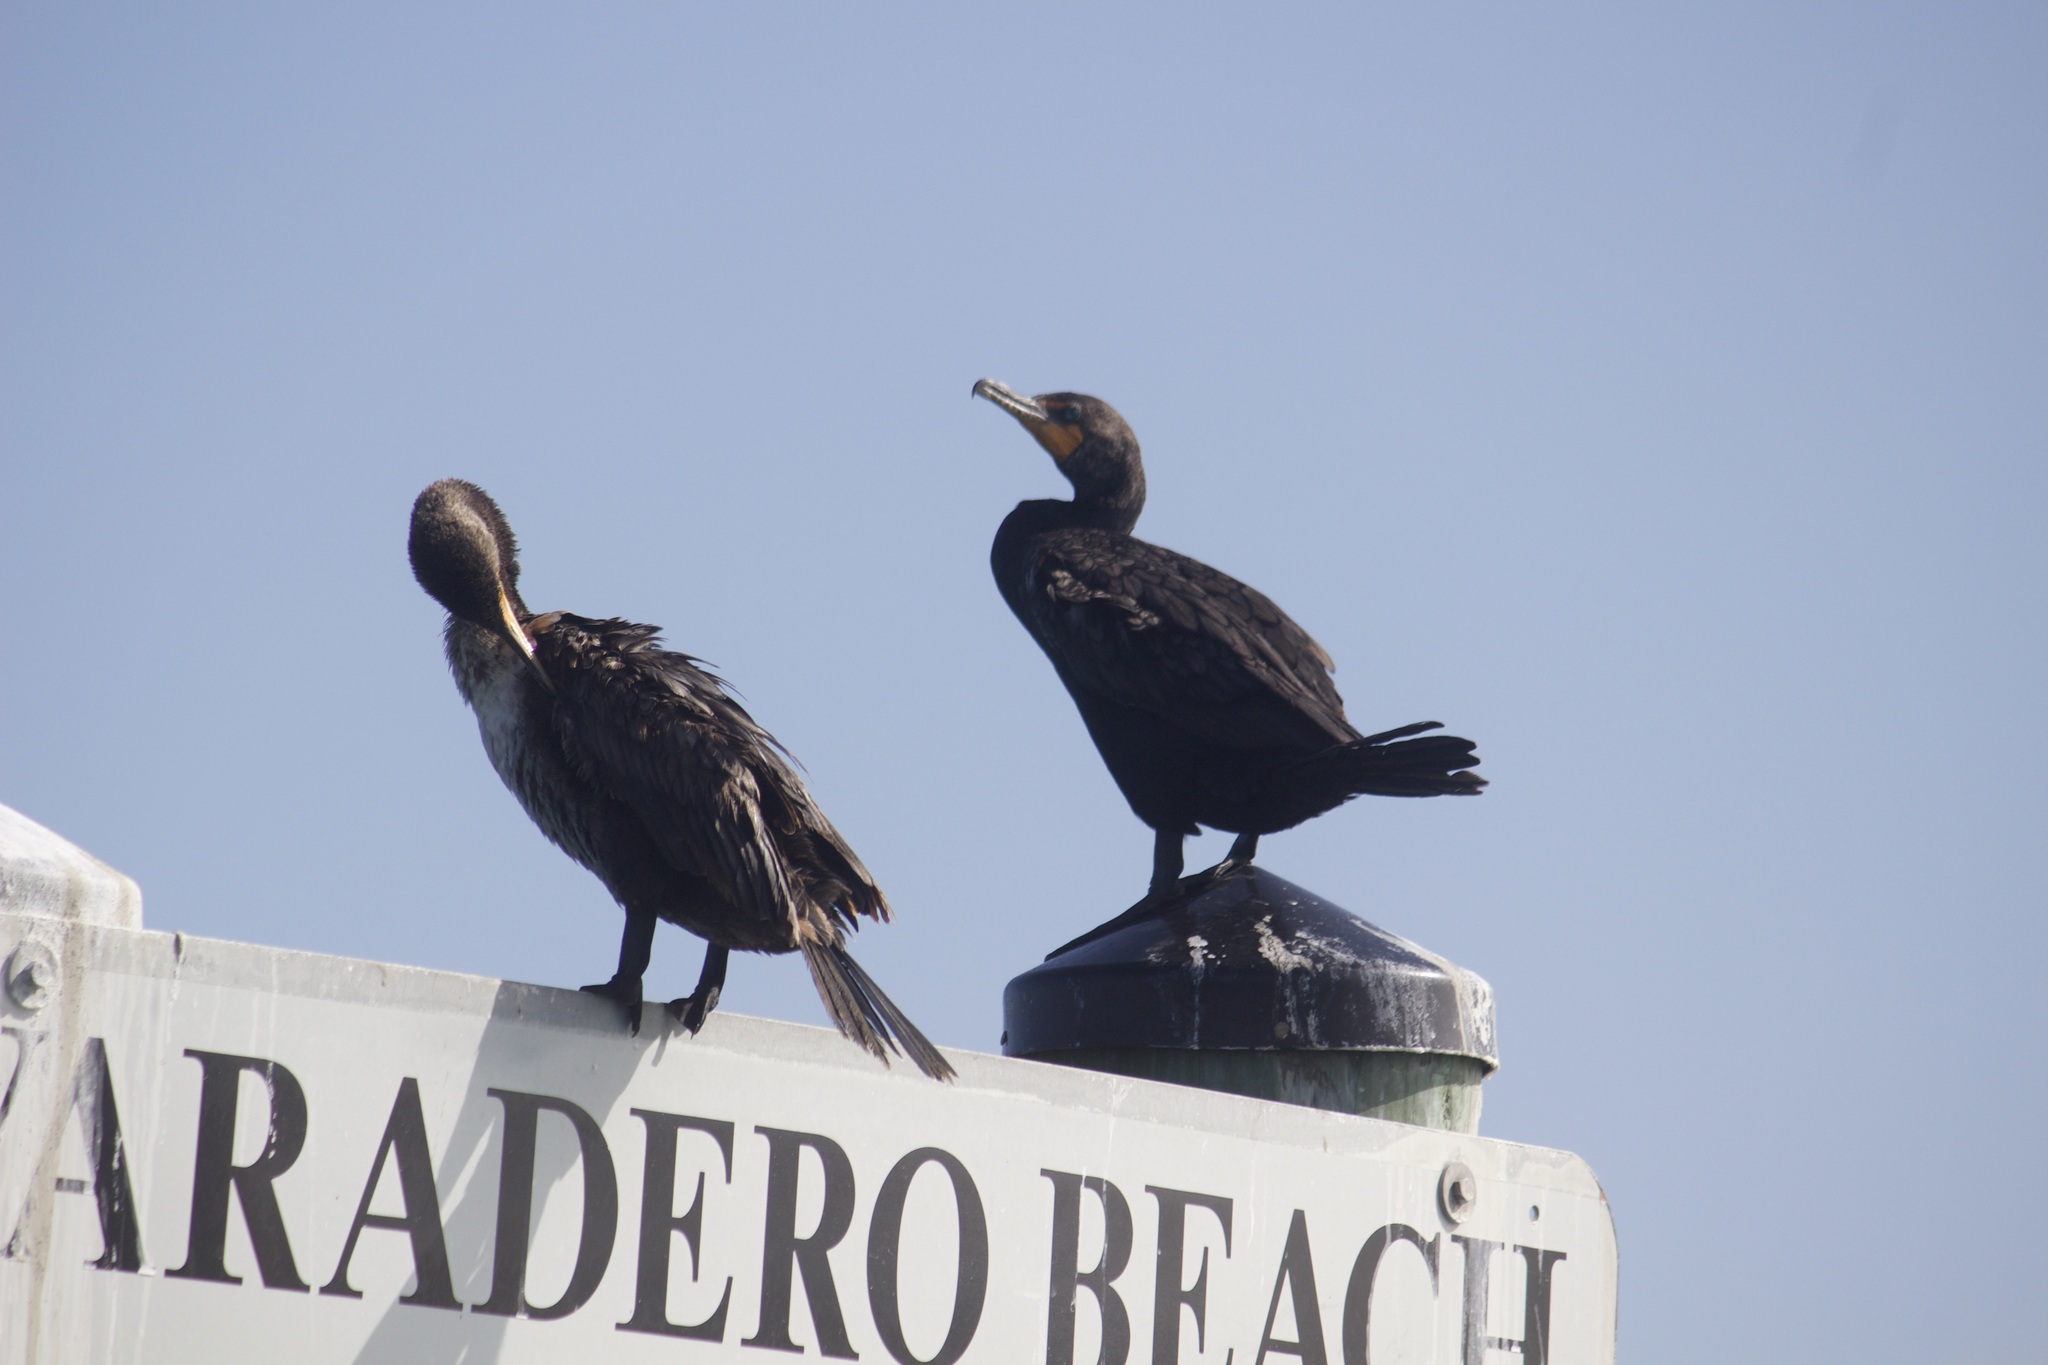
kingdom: Animalia
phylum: Chordata
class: Aves
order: Suliformes
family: Phalacrocoracidae
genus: Phalacrocorax
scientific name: Phalacrocorax auritus
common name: Double-crested cormorant
